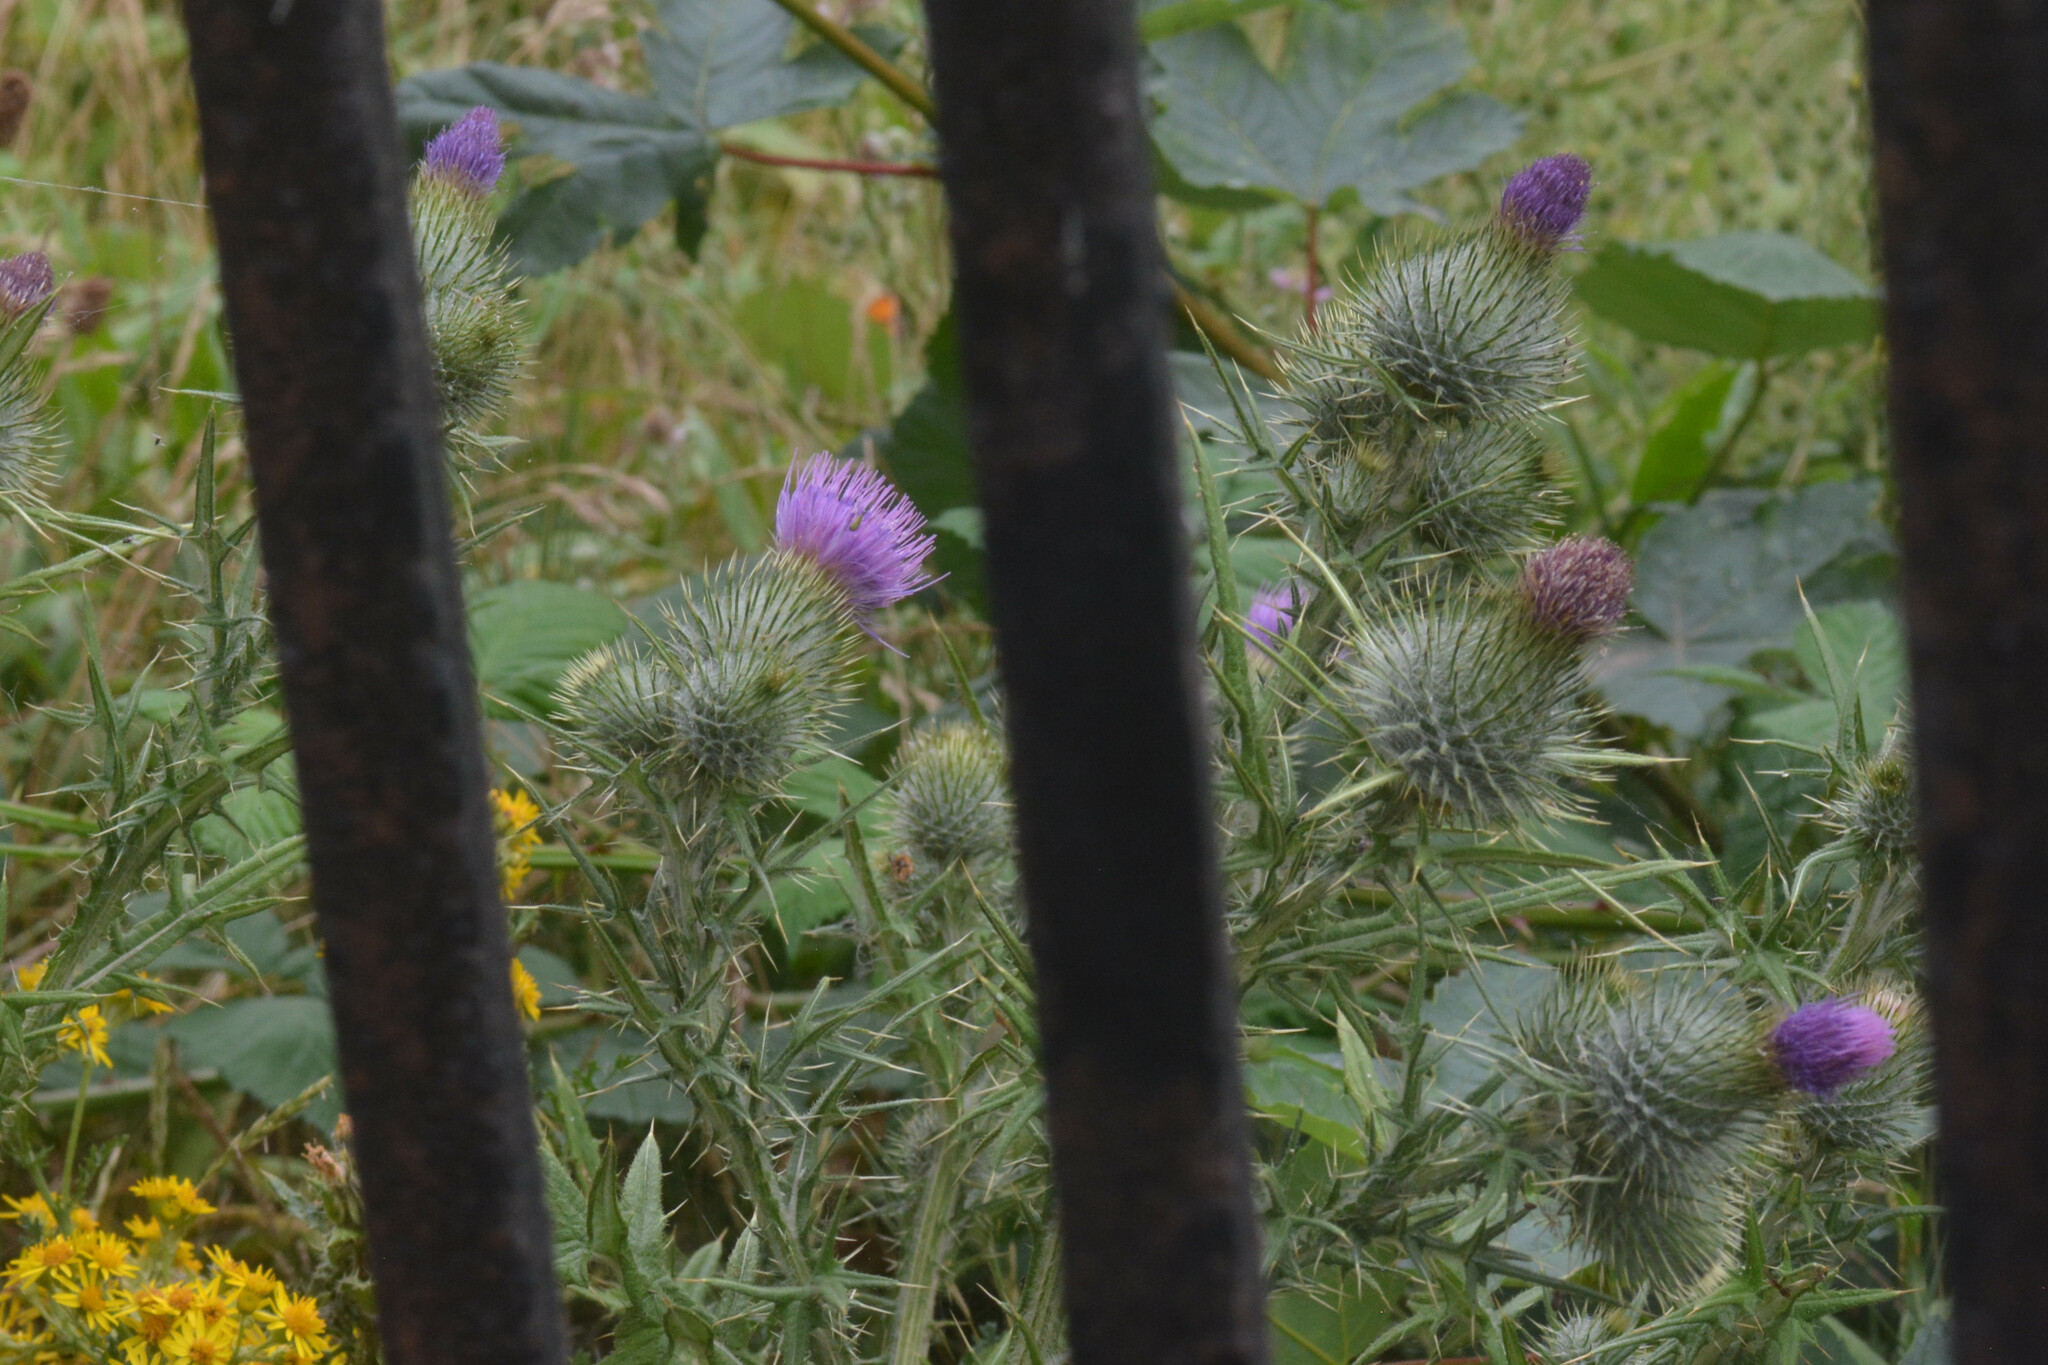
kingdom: Plantae
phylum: Tracheophyta
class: Magnoliopsida
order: Asterales
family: Asteraceae
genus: Cirsium
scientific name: Cirsium vulgare
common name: Bull thistle
